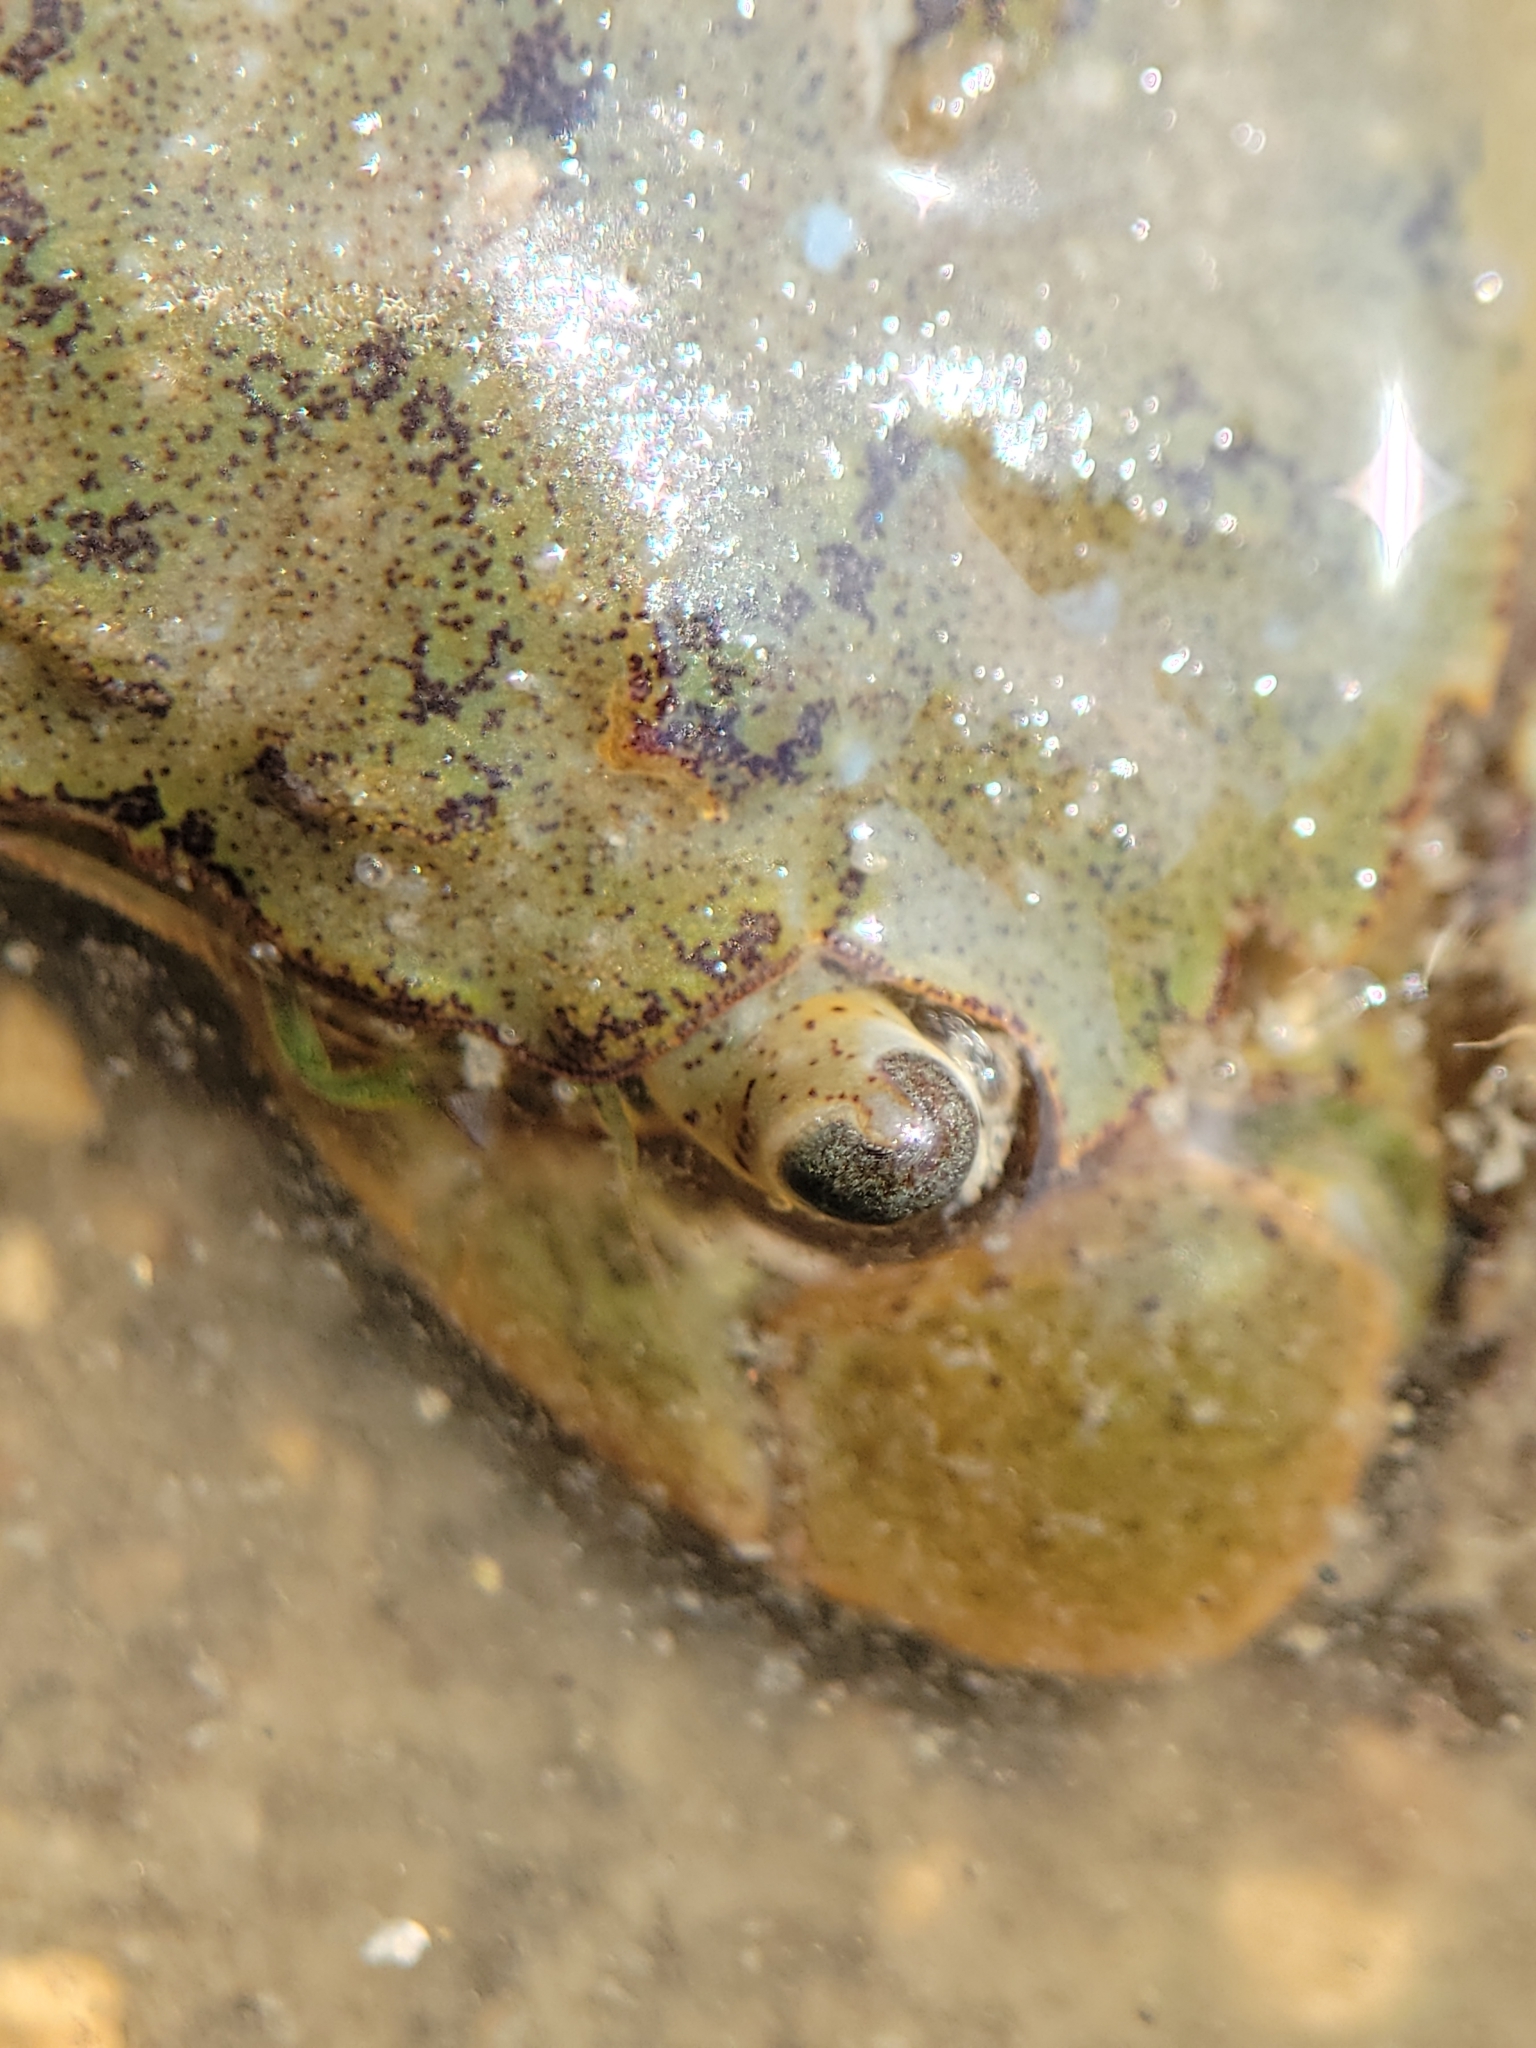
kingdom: Animalia
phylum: Arthropoda
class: Malacostraca
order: Decapoda
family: Varunidae
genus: Hemigrapsus
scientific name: Hemigrapsus oregonensis
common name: Yellow shore crab
